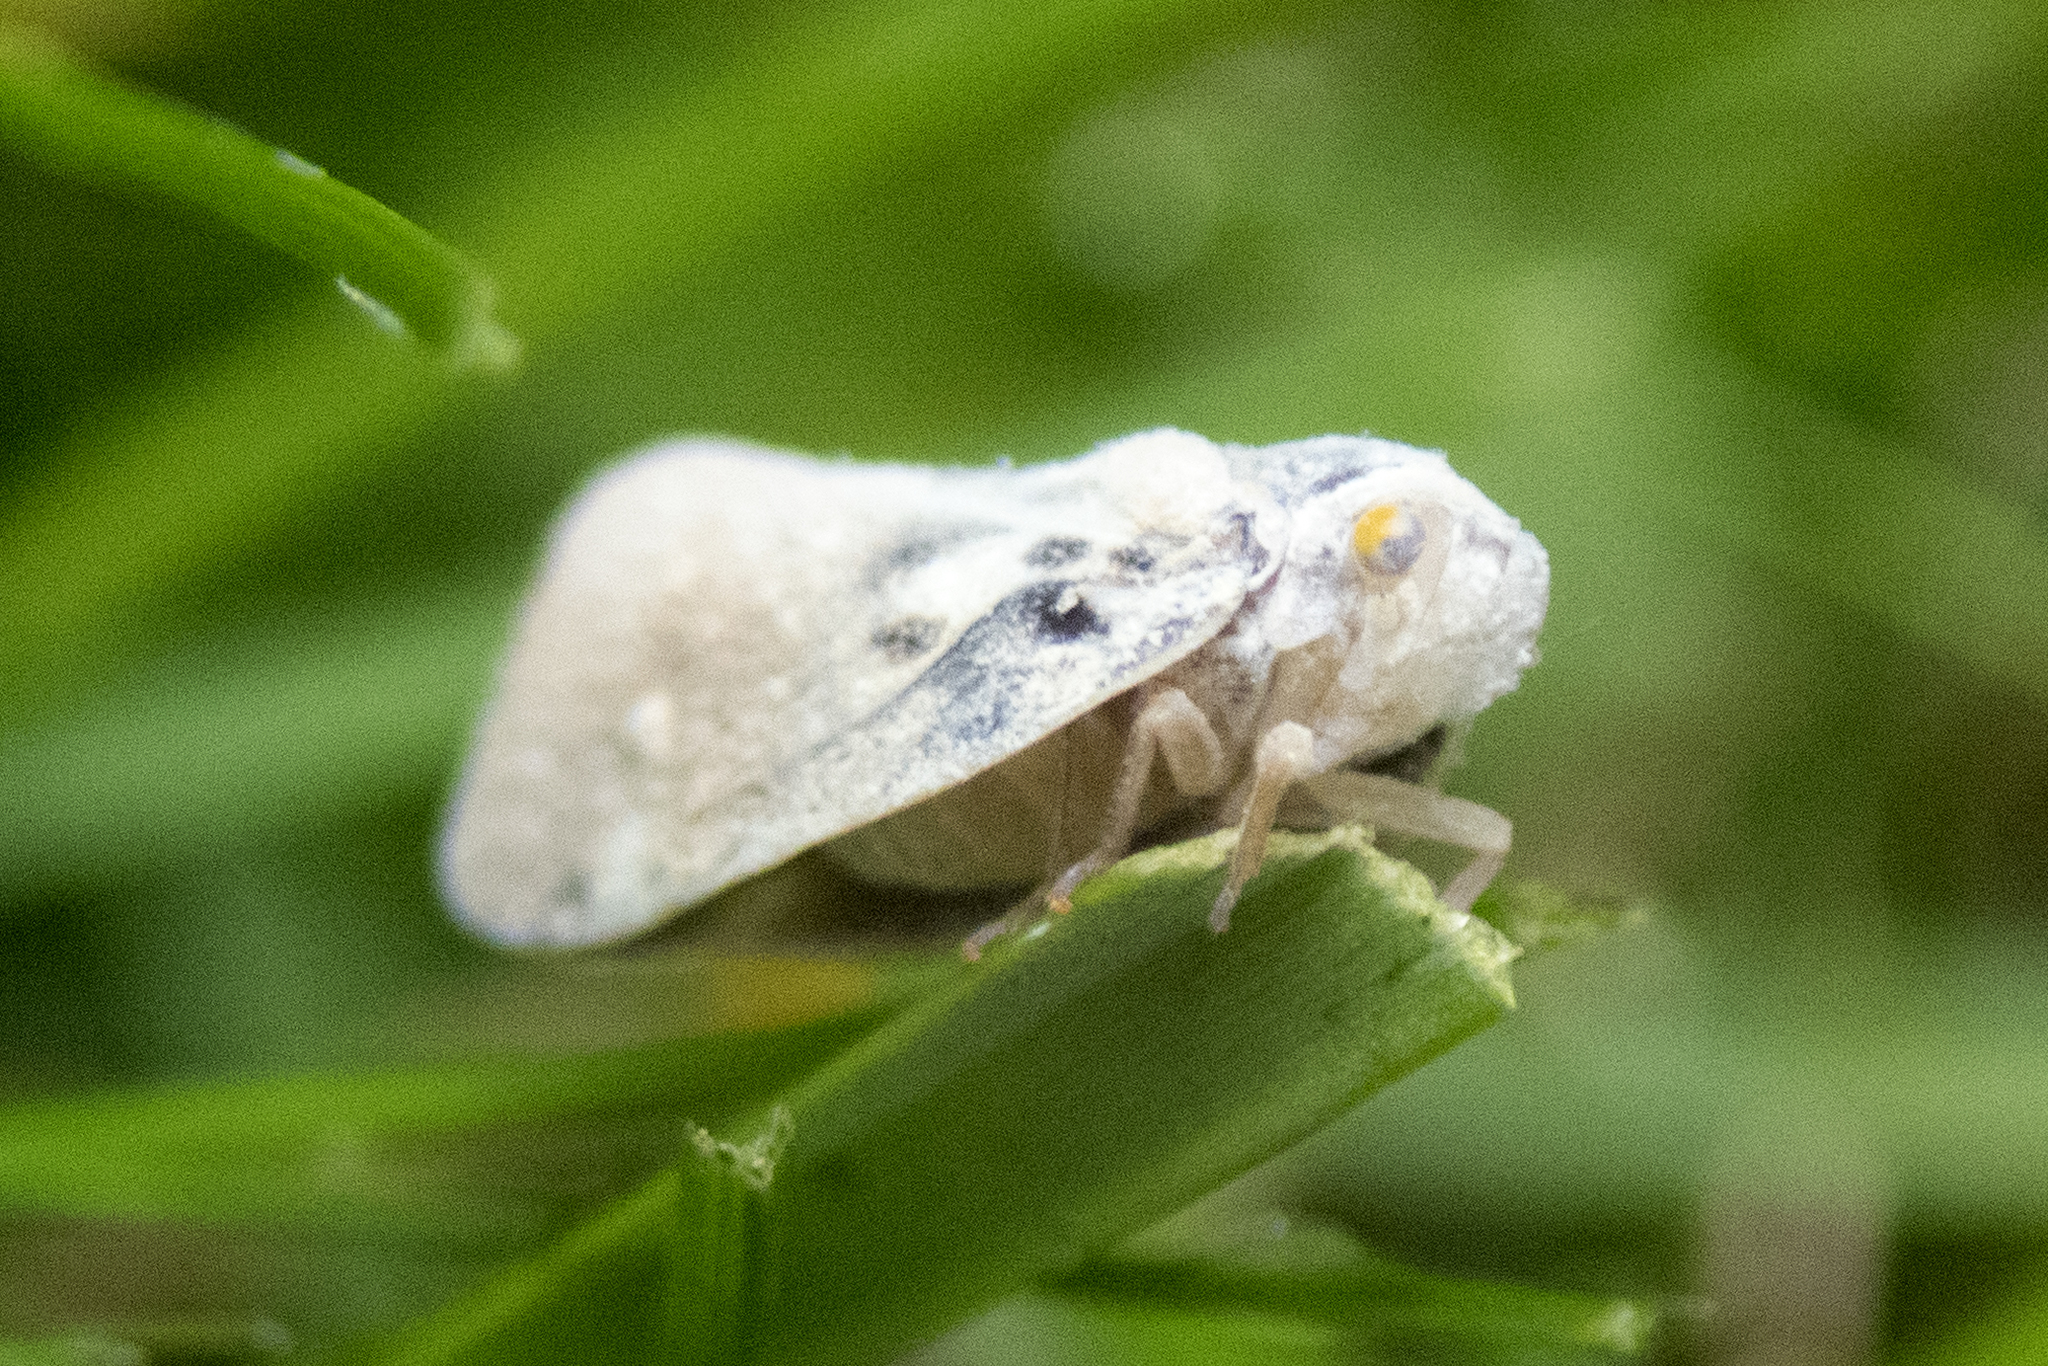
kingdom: Animalia
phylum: Arthropoda
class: Insecta
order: Hemiptera
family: Flatidae
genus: Metcalfa
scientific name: Metcalfa pruinosa
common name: Citrus flatid planthopper
